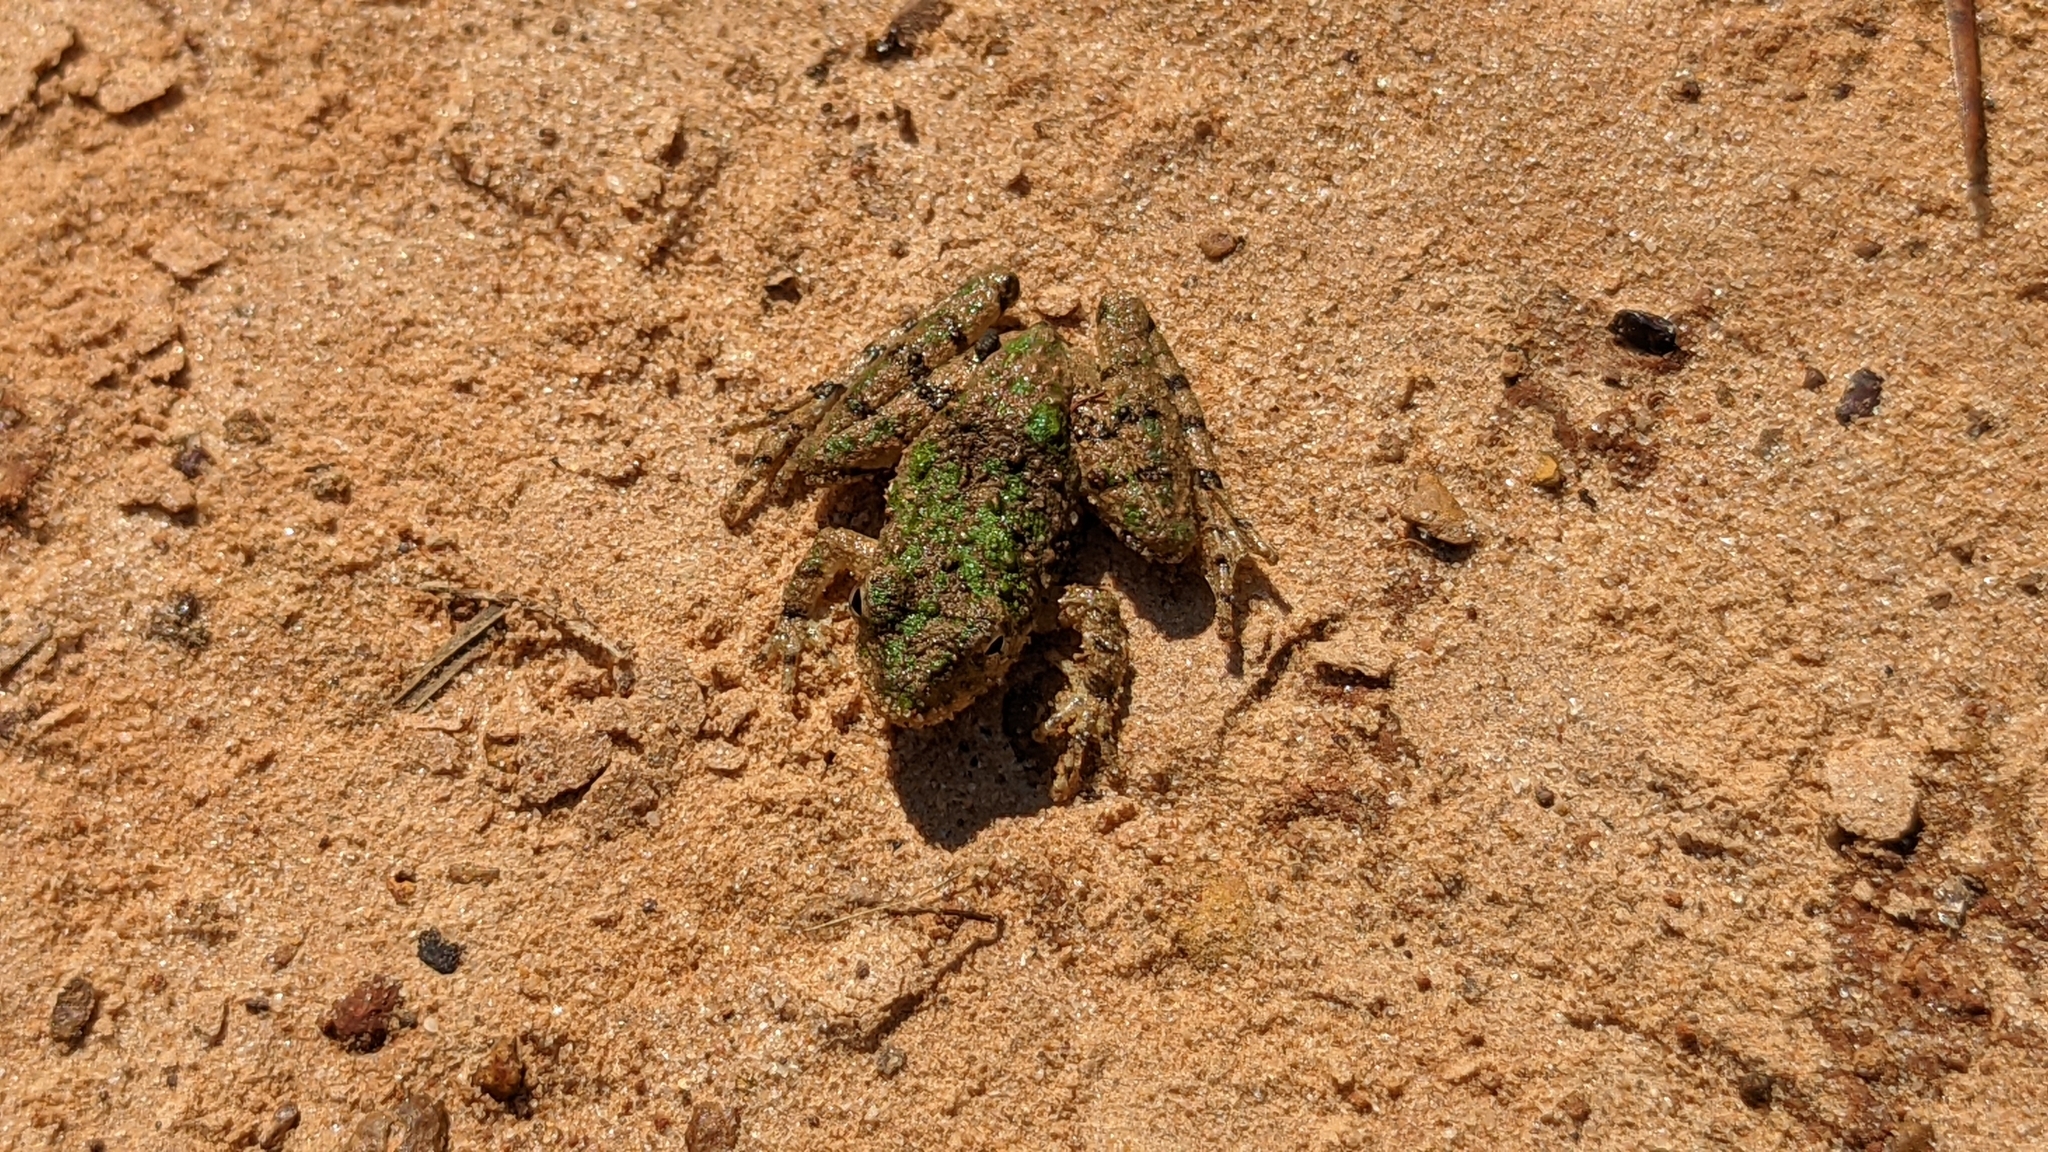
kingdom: Animalia
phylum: Chordata
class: Amphibia
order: Anura
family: Hylidae
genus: Acris
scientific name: Acris blanchardi
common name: Blanchard's cricket frog
